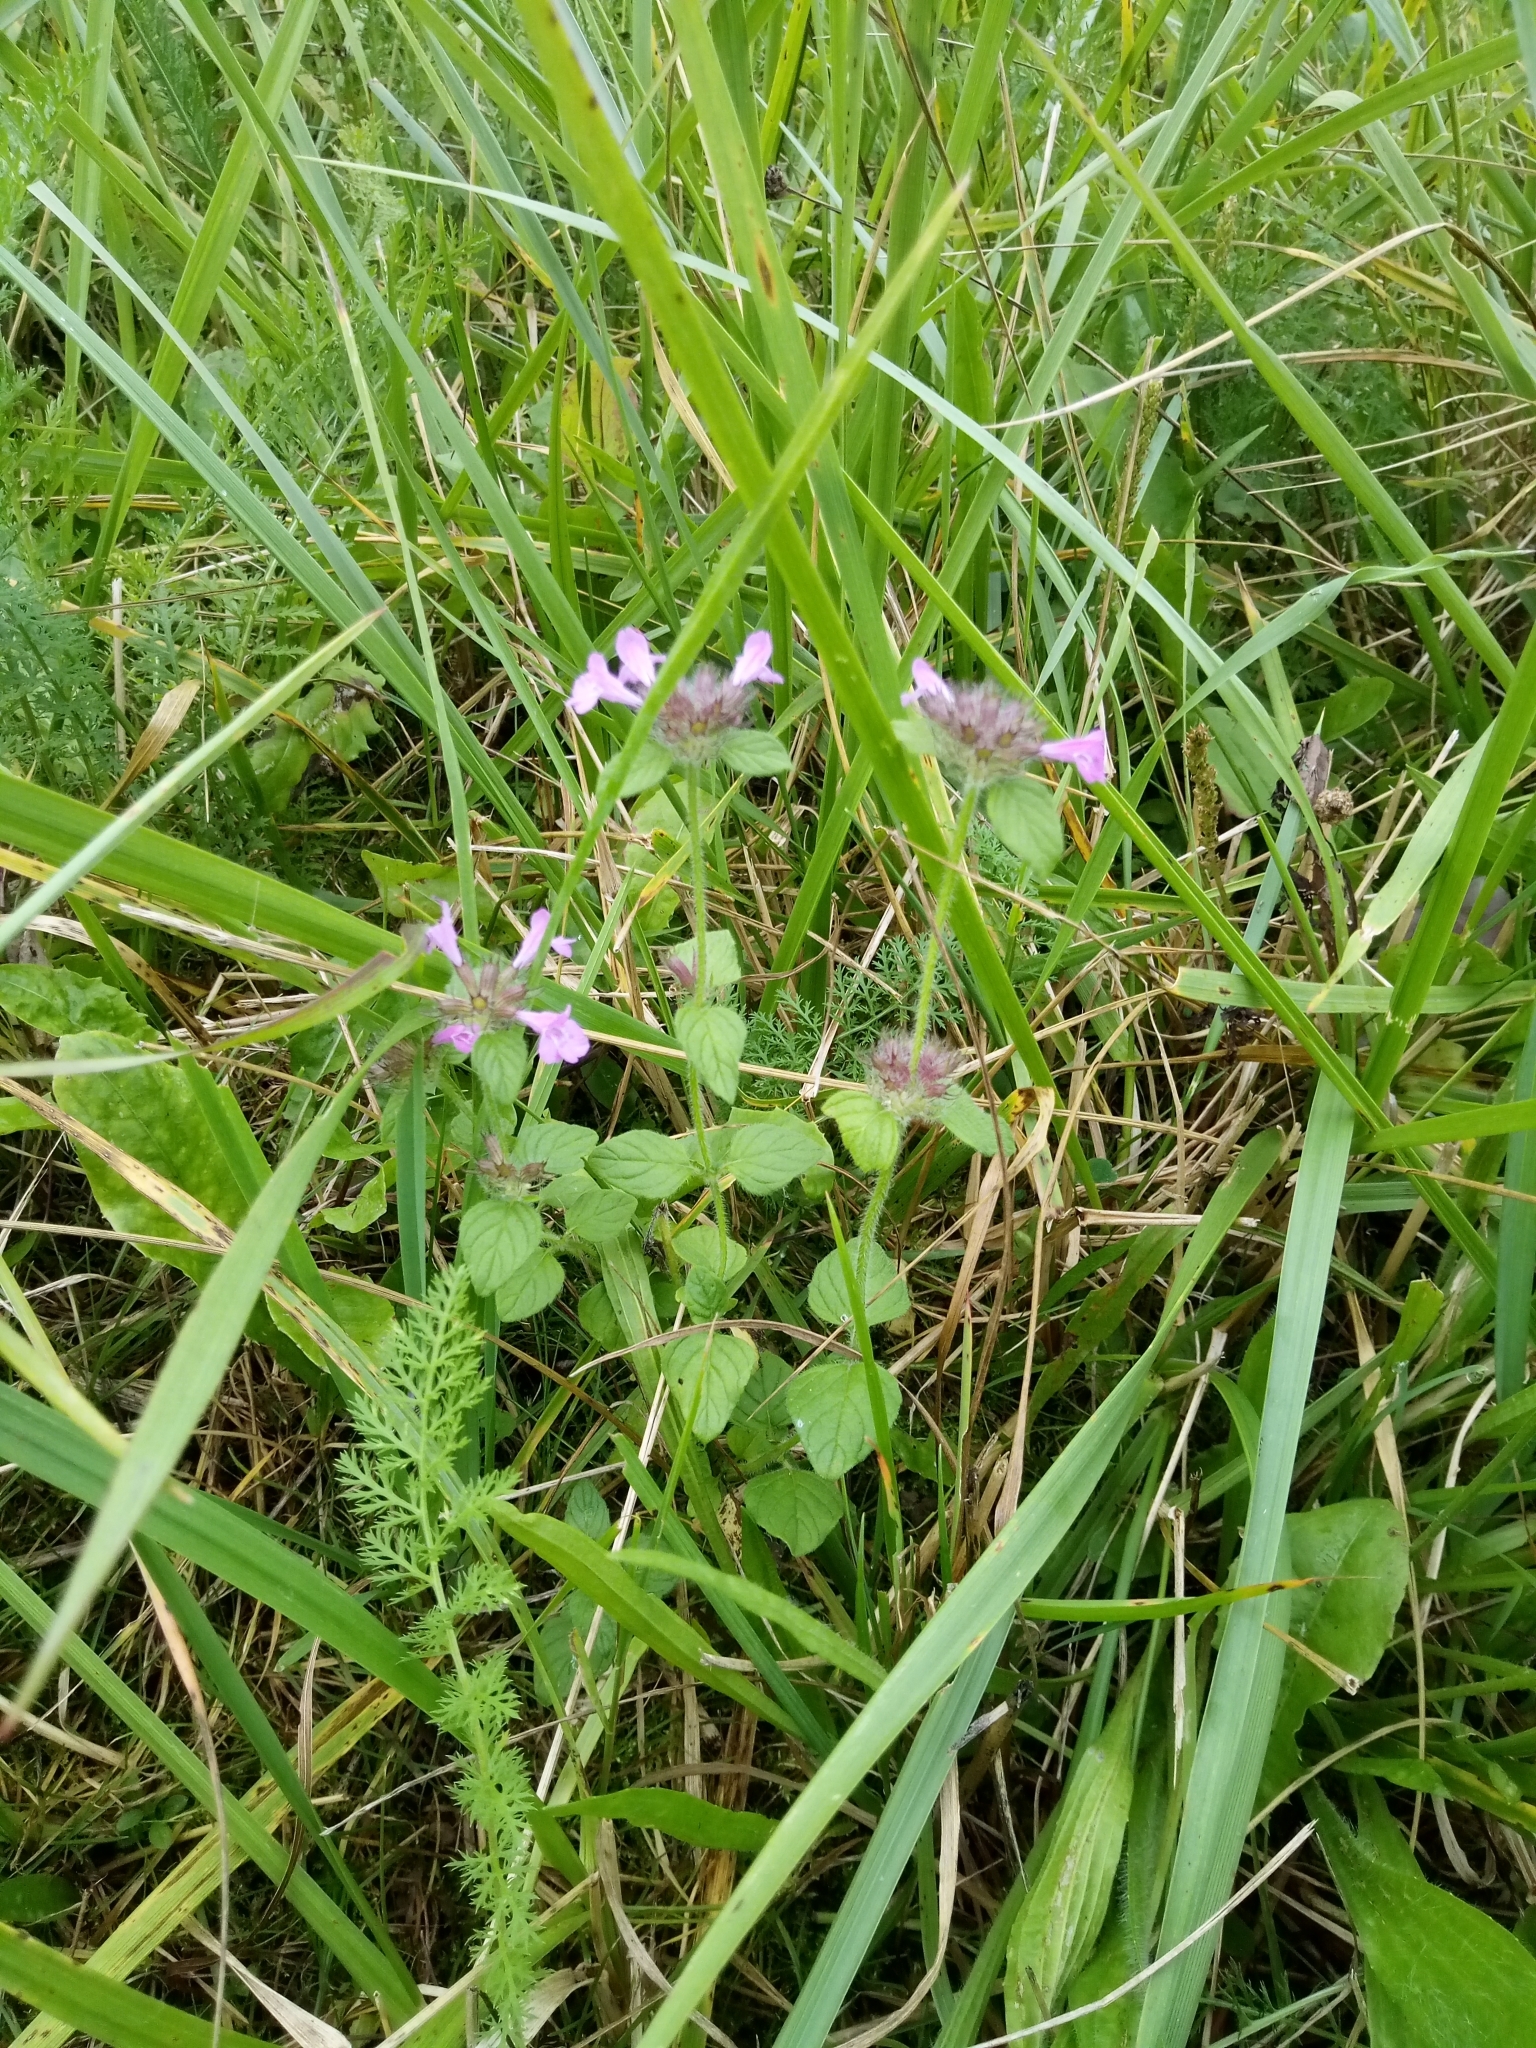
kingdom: Plantae
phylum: Tracheophyta
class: Magnoliopsida
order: Lamiales
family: Lamiaceae
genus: Clinopodium
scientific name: Clinopodium vulgare
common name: Wild basil
